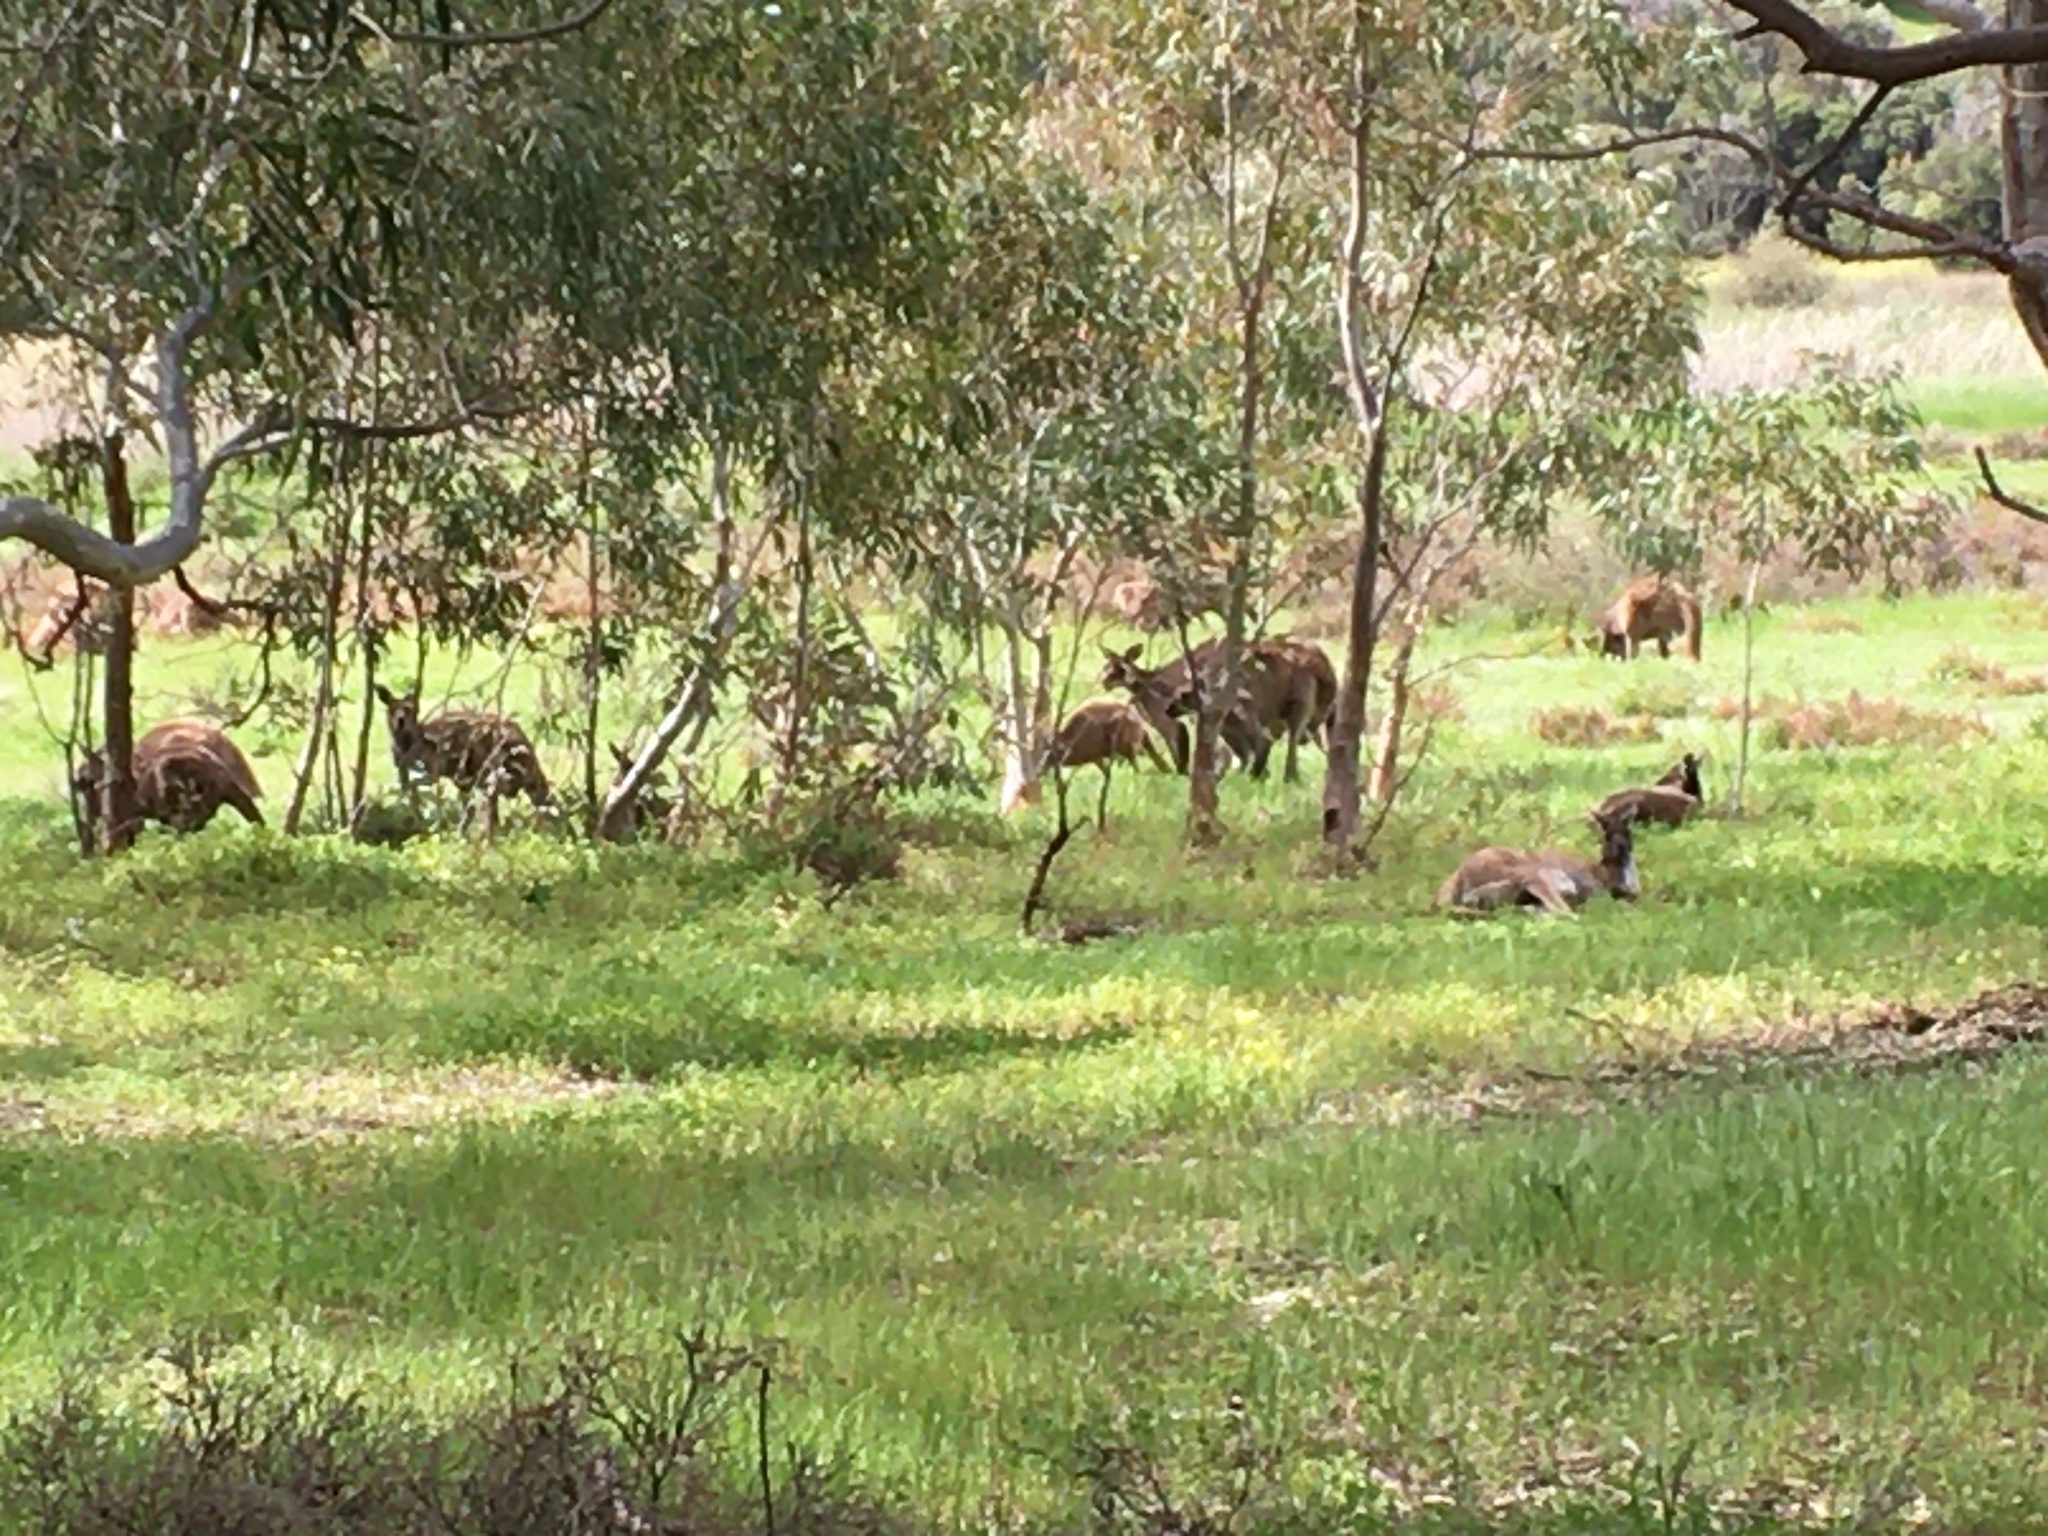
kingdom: Animalia
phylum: Chordata
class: Mammalia
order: Diprotodontia
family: Macropodidae
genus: Macropus
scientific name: Macropus fuliginosus
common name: Western grey kangaroo
